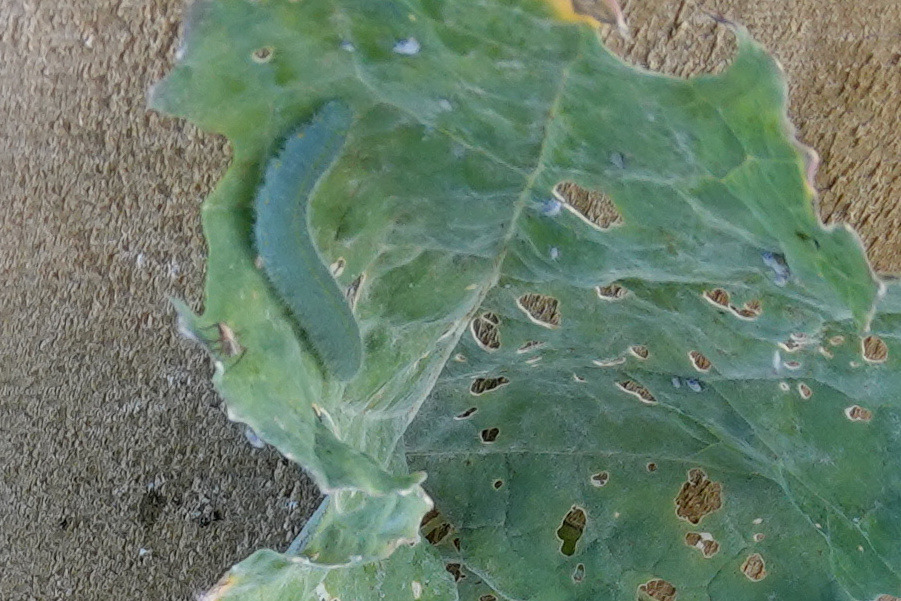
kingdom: Animalia
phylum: Arthropoda
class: Insecta
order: Lepidoptera
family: Pieridae
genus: Pieris
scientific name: Pieris rapae
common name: Small white
